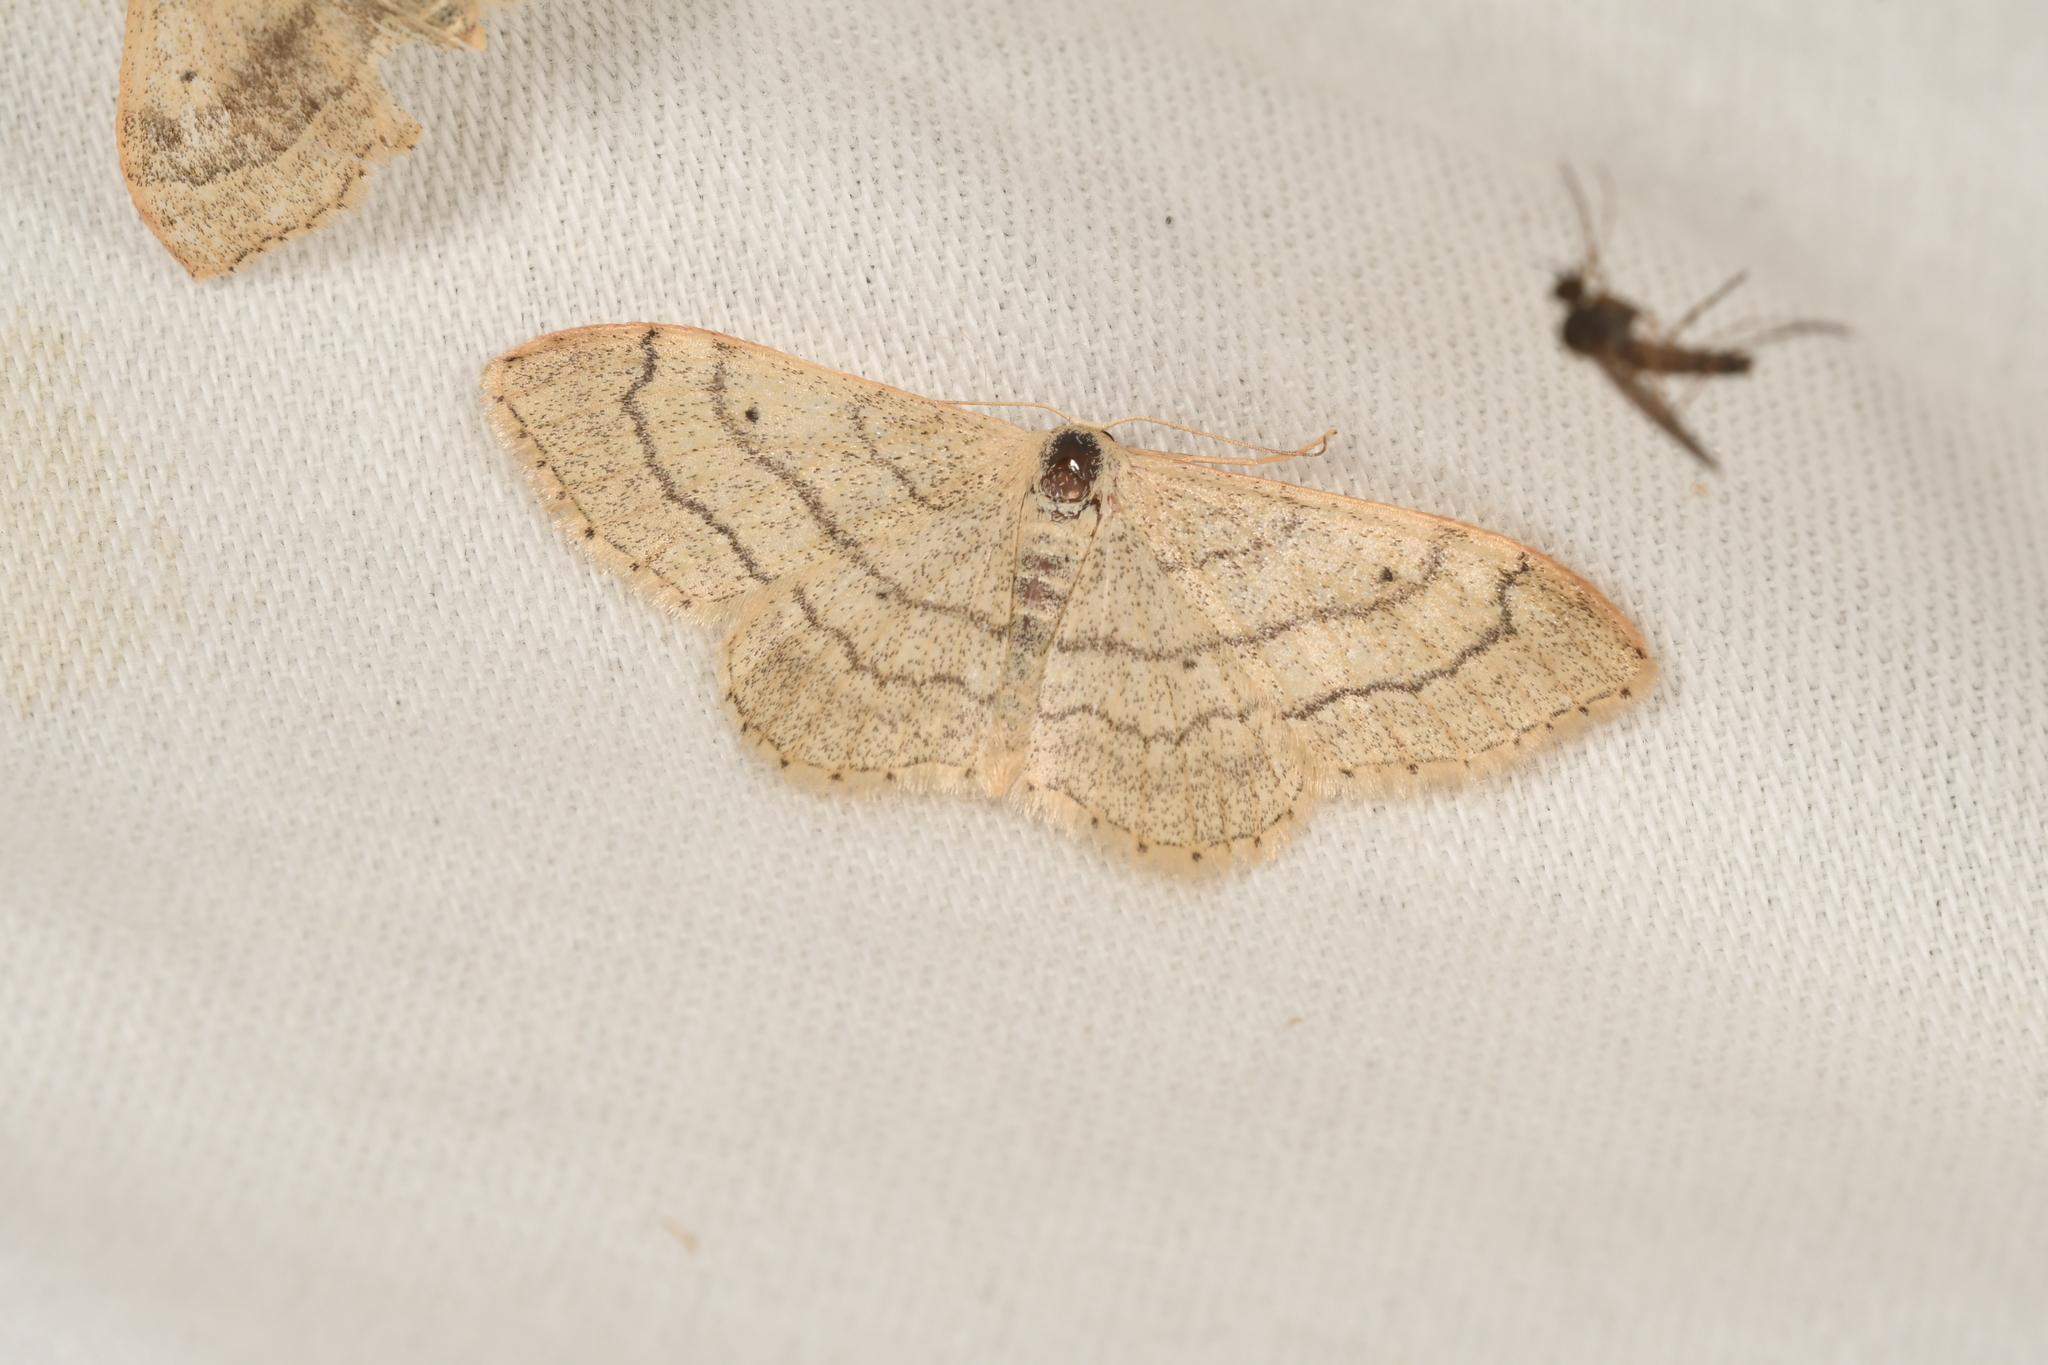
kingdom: Animalia
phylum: Arthropoda
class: Insecta
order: Lepidoptera
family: Geometridae
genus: Idaea
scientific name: Idaea aversata
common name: Riband wave
